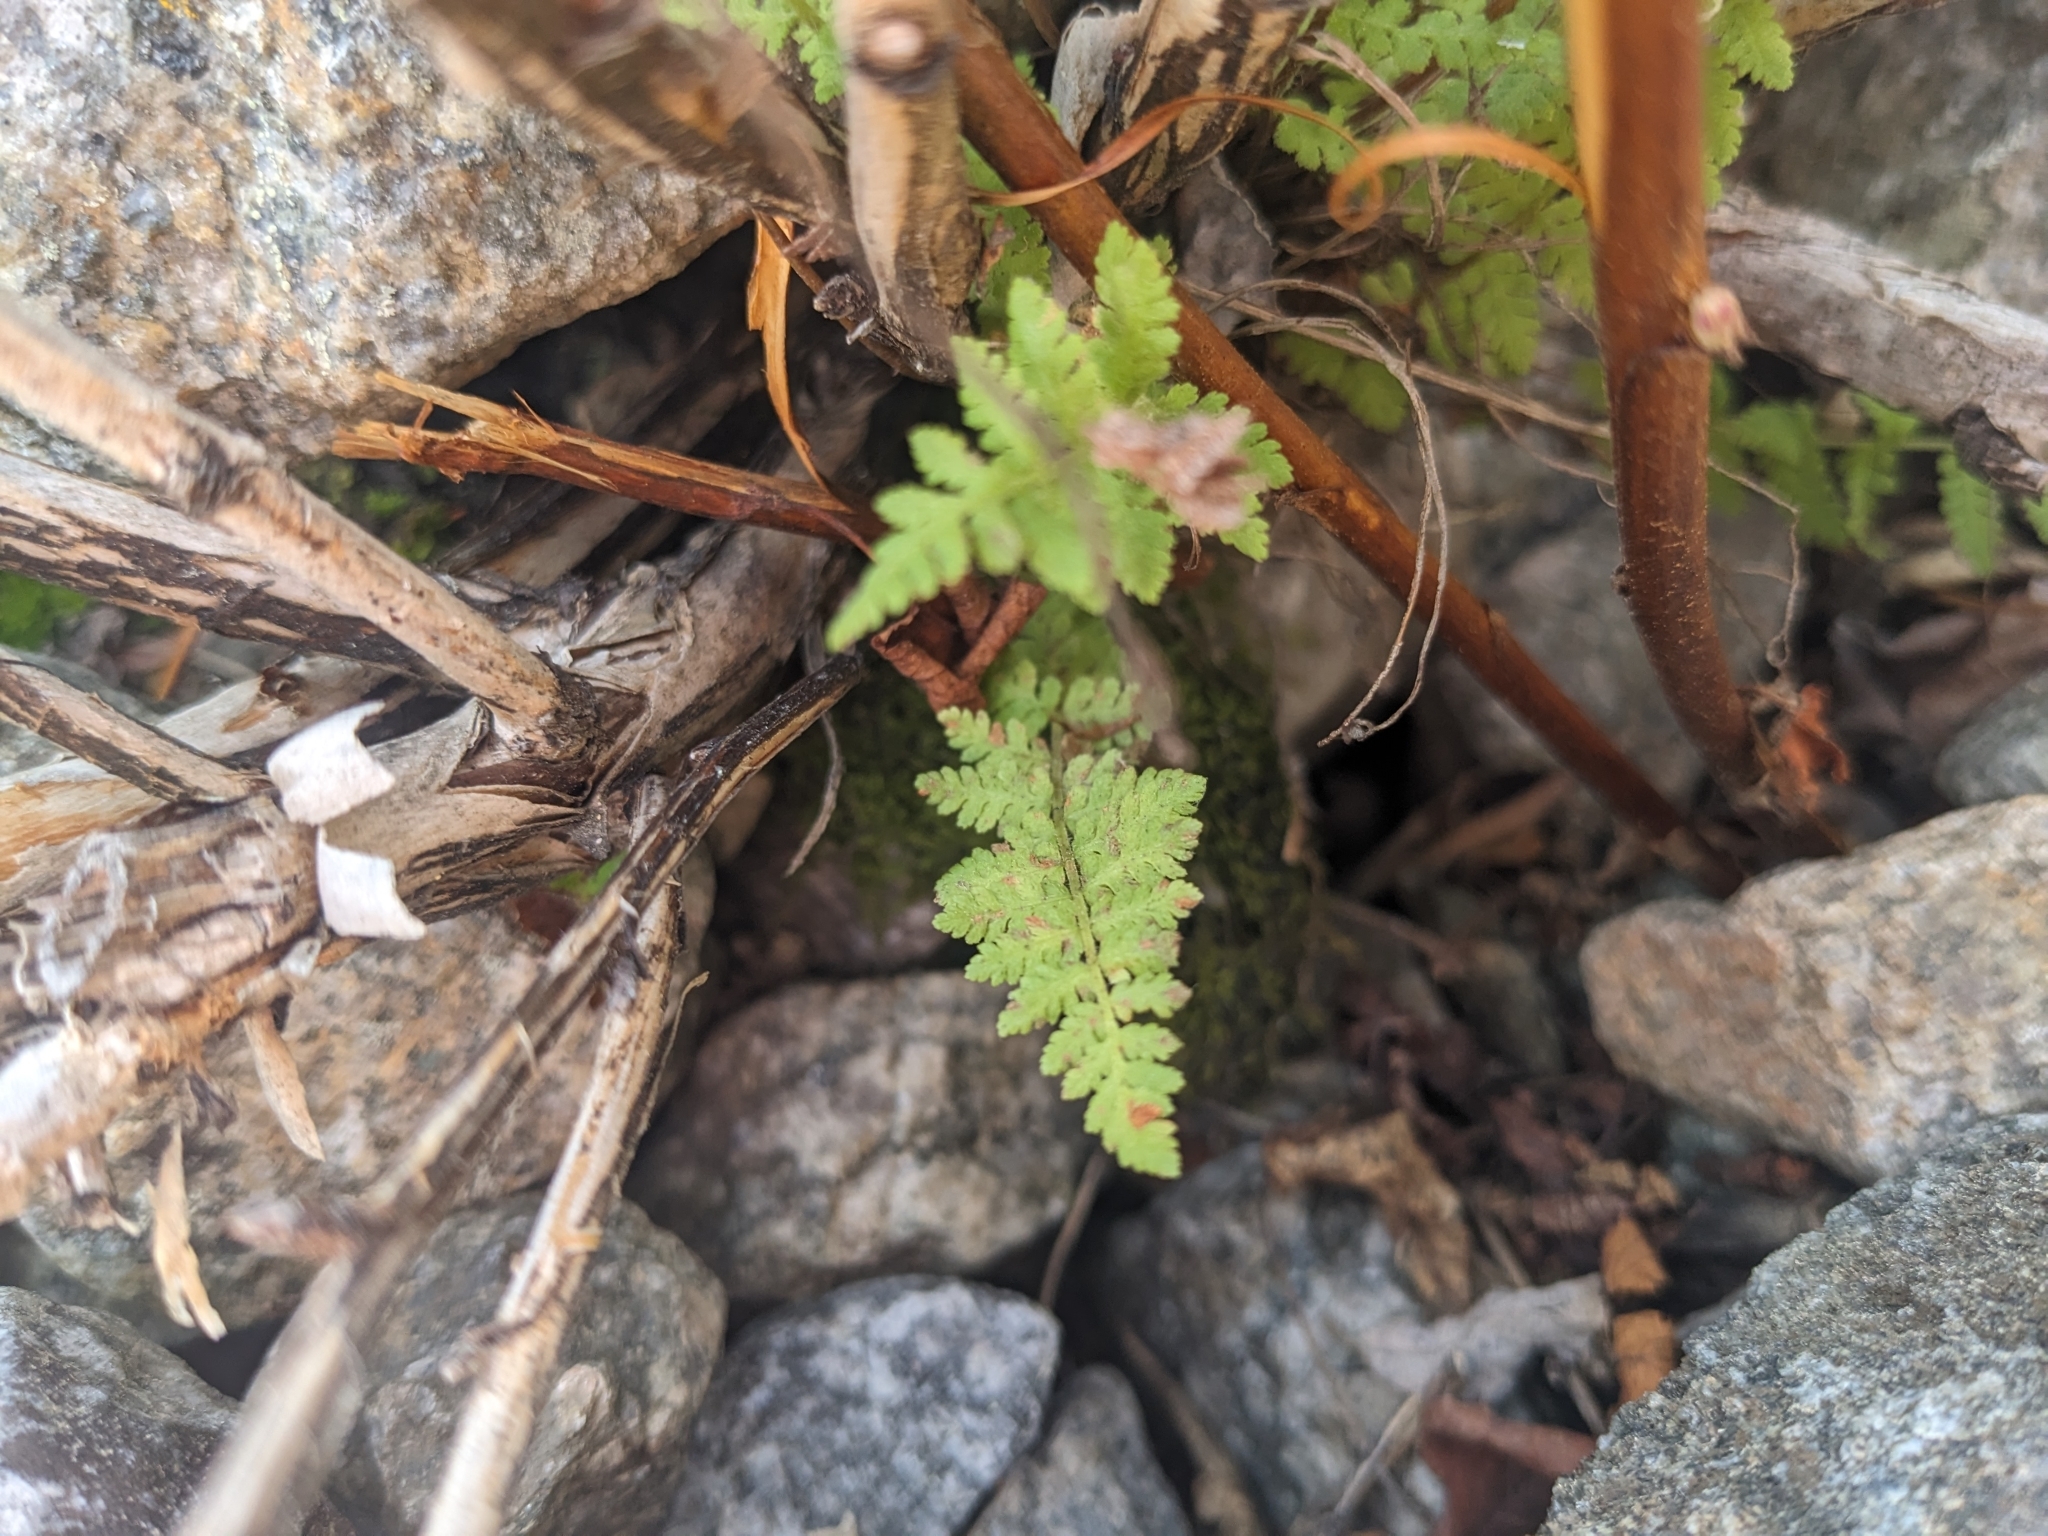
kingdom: Plantae
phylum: Tracheophyta
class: Polypodiopsida
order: Polypodiales
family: Woodsiaceae
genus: Physematium
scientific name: Physematium scopulinum
